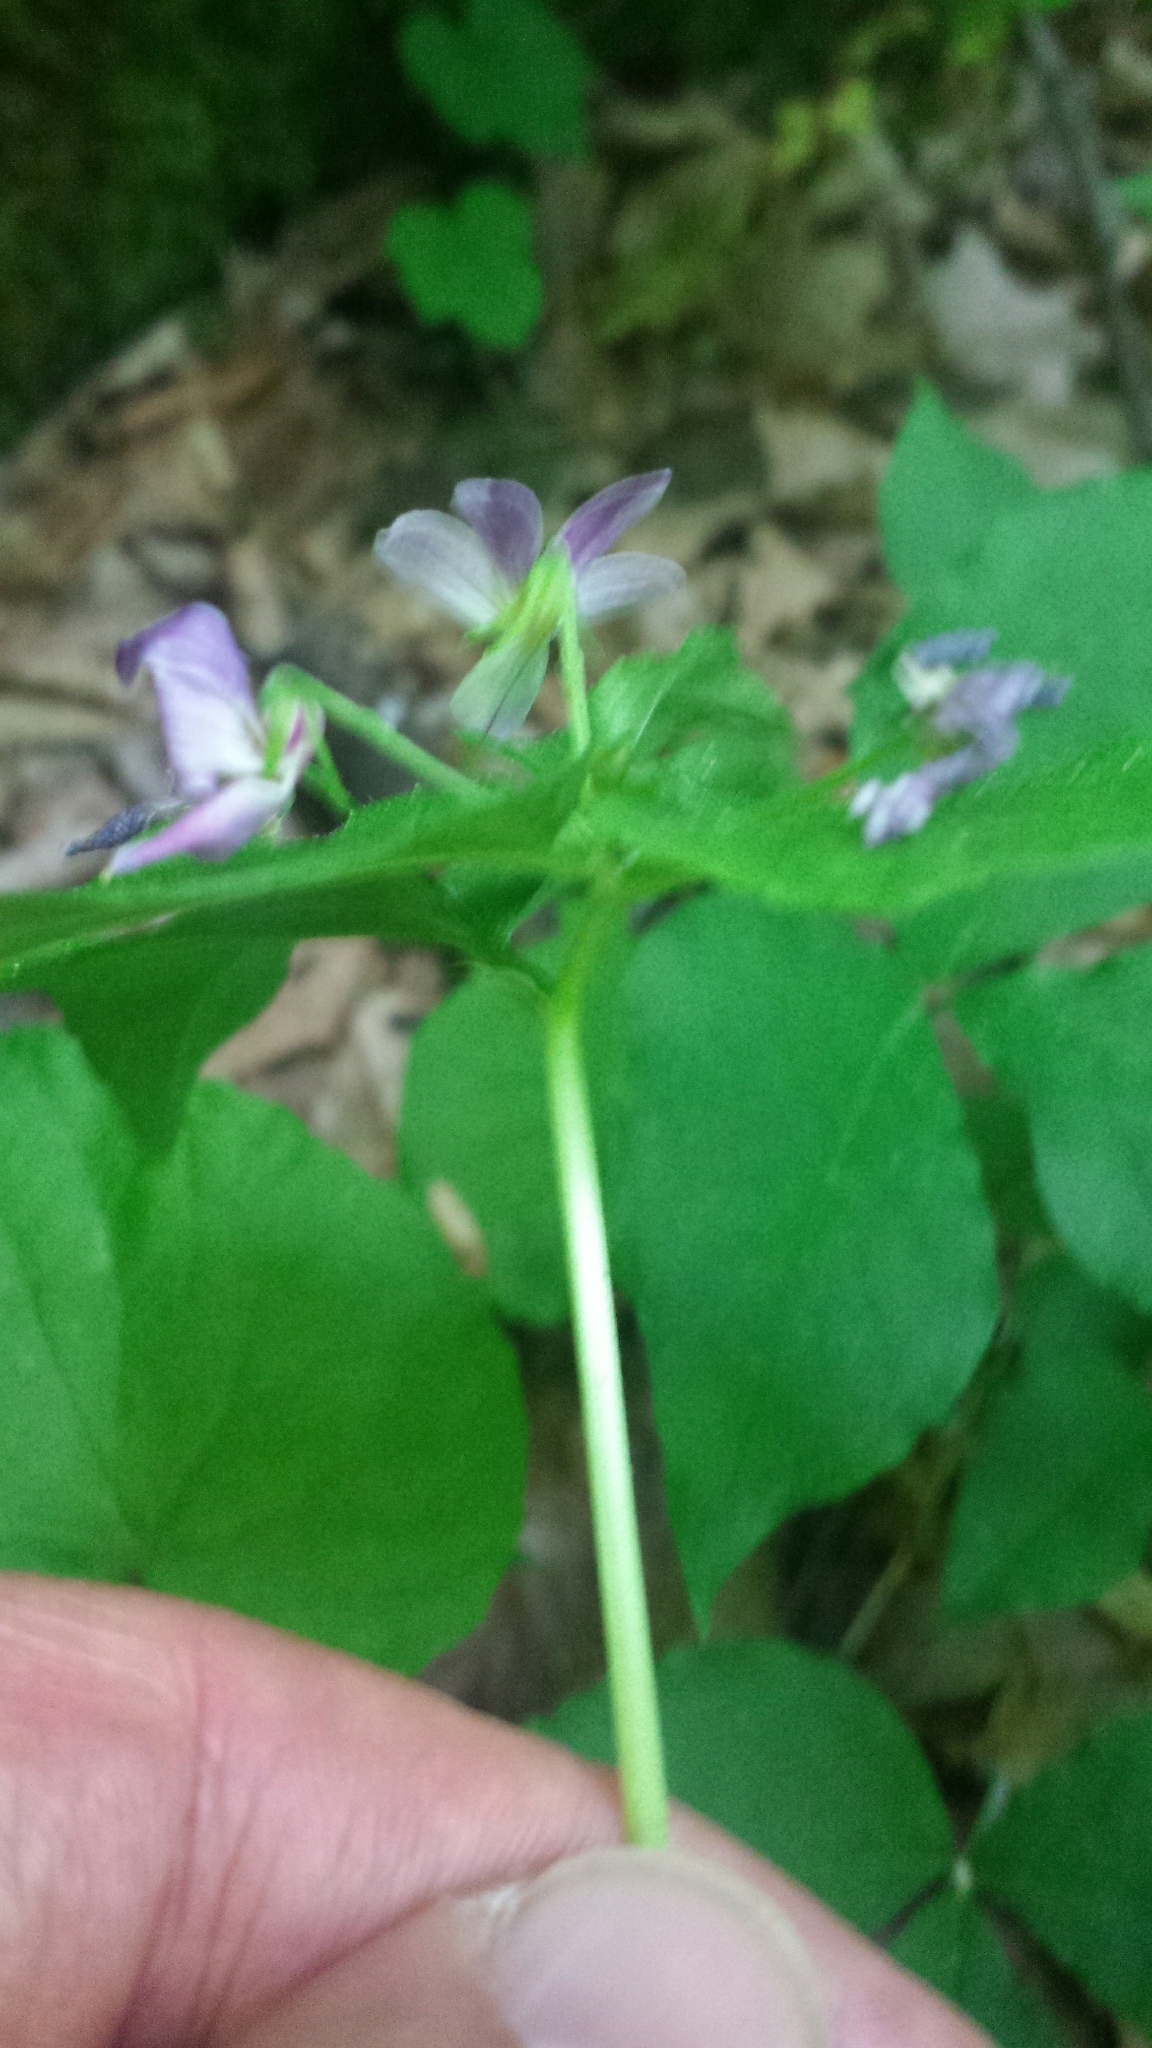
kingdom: Plantae
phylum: Tracheophyta
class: Magnoliopsida
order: Malpighiales
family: Violaceae
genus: Viola
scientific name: Viola canadensis
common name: Canada violet
